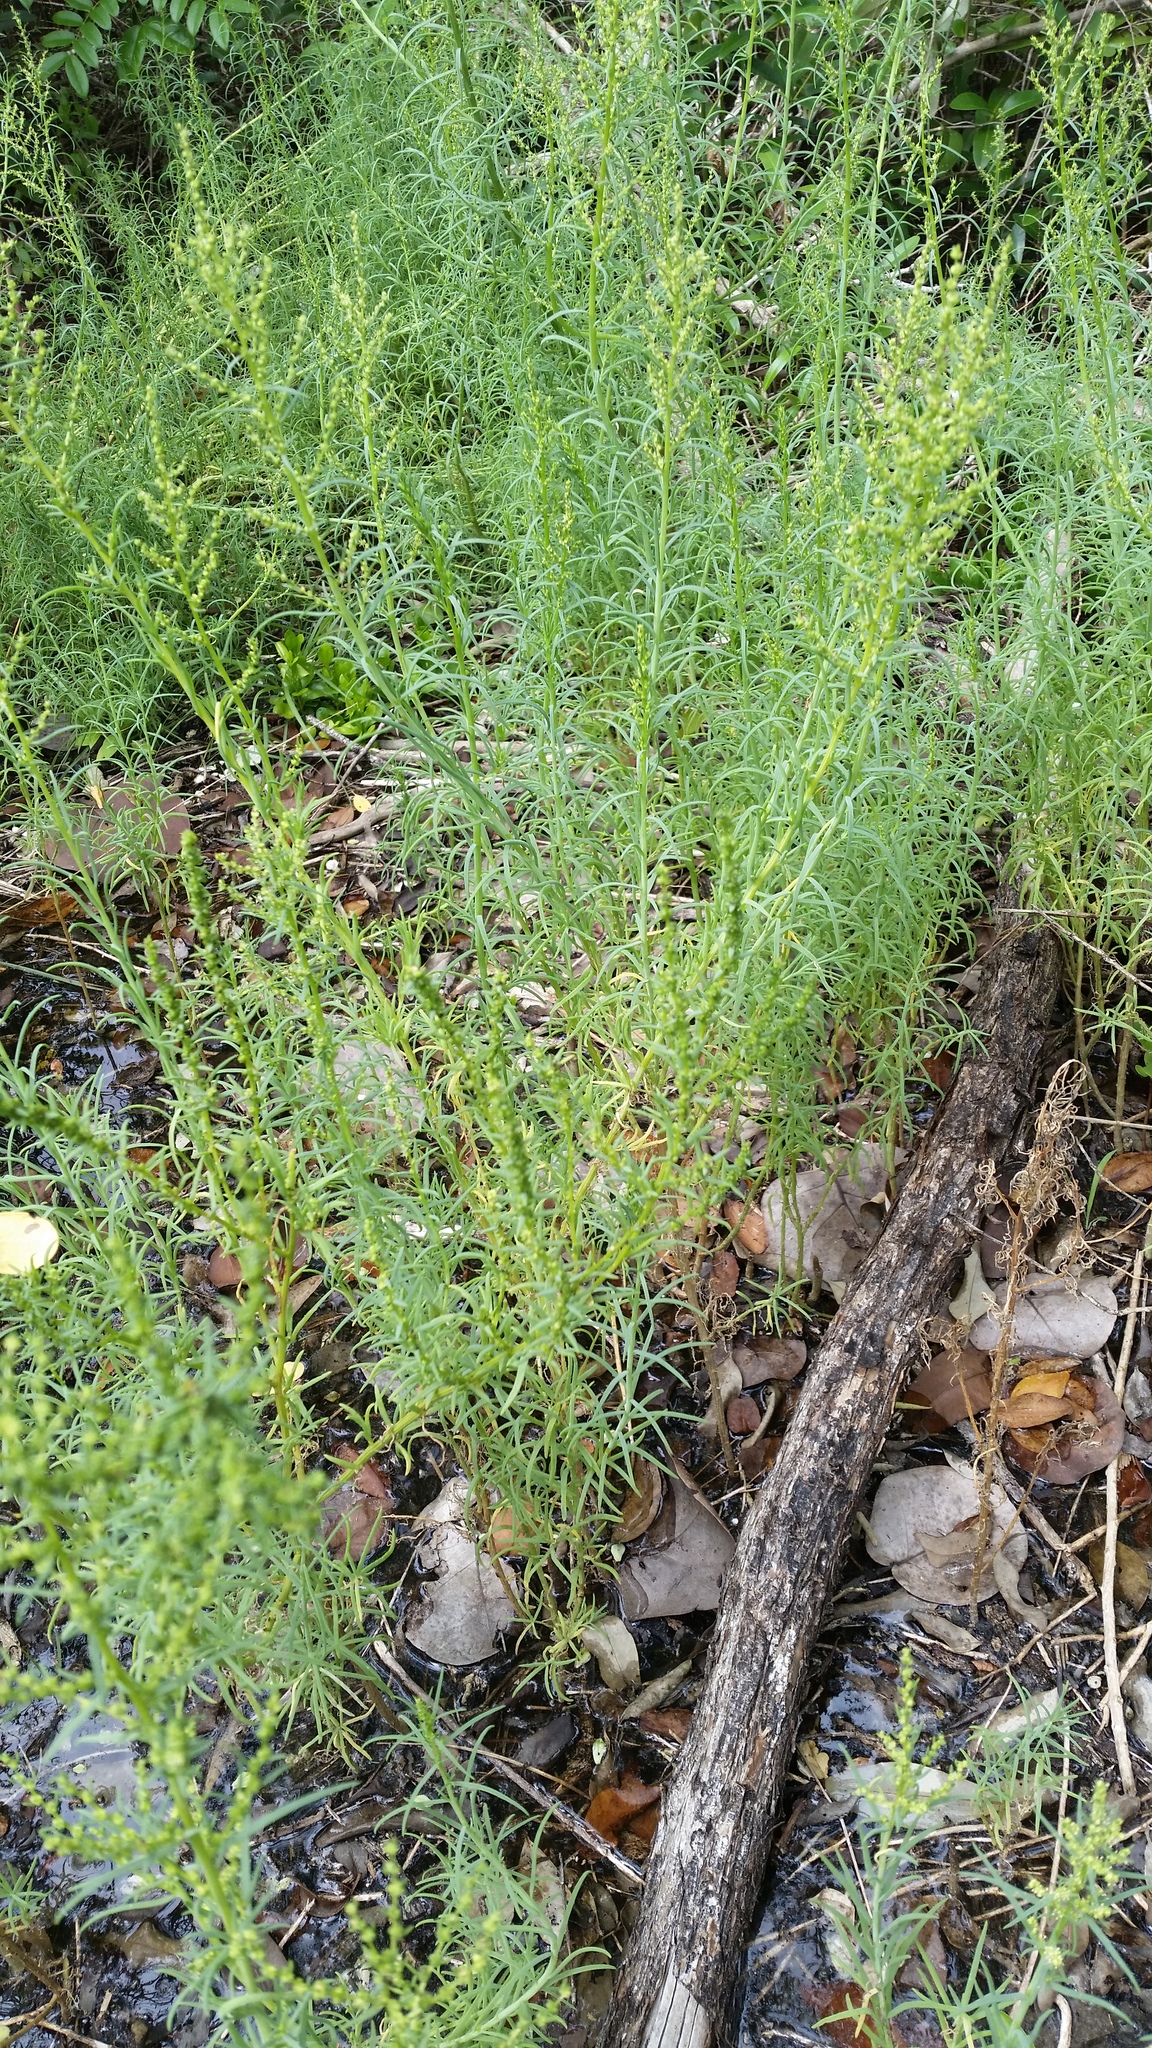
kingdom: Plantae
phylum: Tracheophyta
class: Magnoliopsida
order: Caryophyllales
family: Amaranthaceae
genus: Suaeda
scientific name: Suaeda linearis
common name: Annual seepweed
